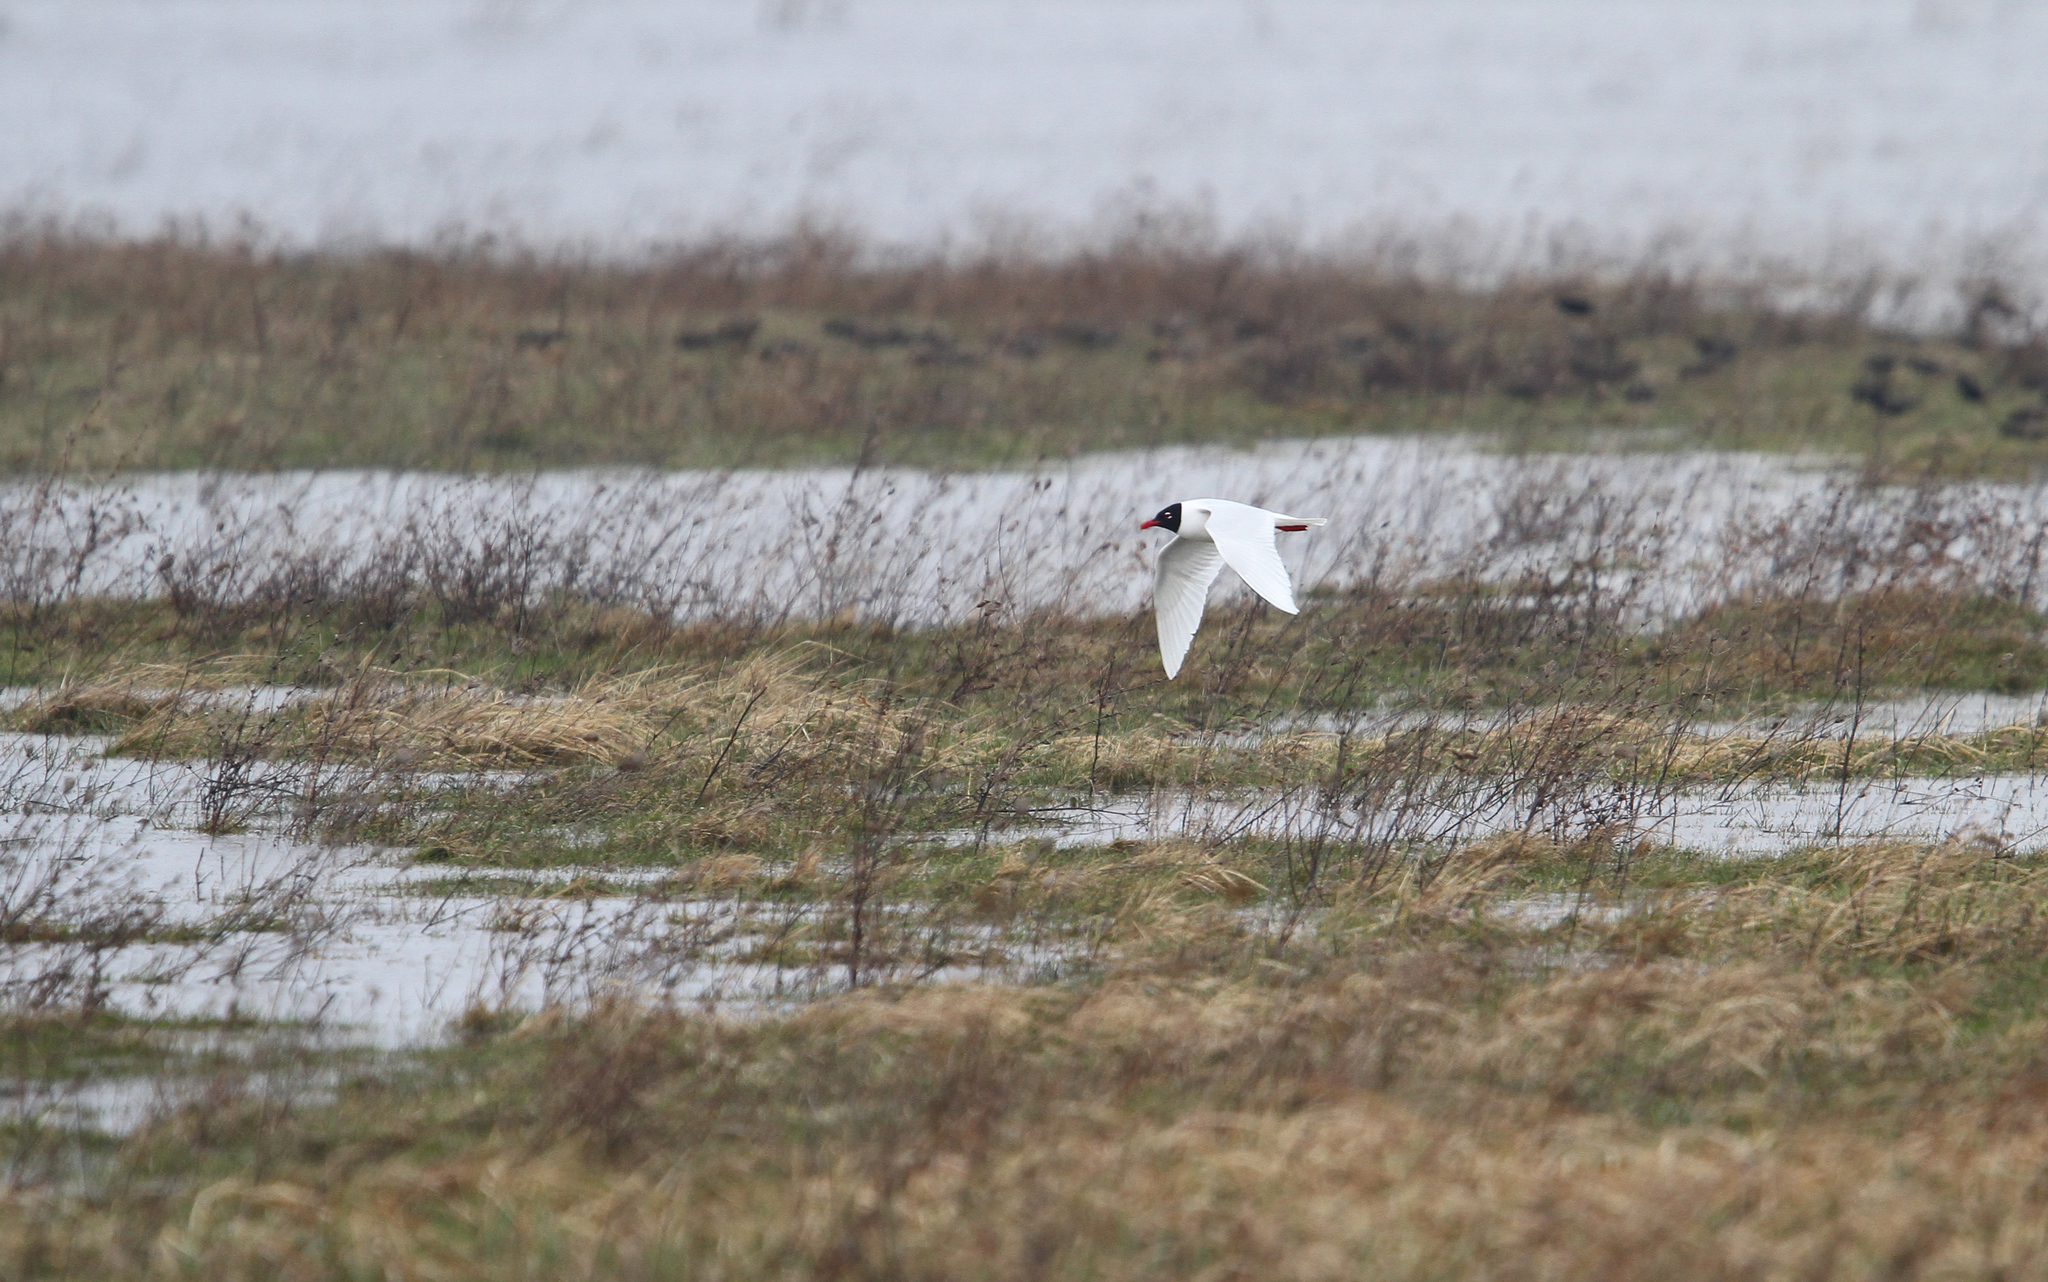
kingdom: Animalia
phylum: Chordata
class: Aves
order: Charadriiformes
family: Laridae
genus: Ichthyaetus
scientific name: Ichthyaetus melanocephalus
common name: Mediterranean gull
